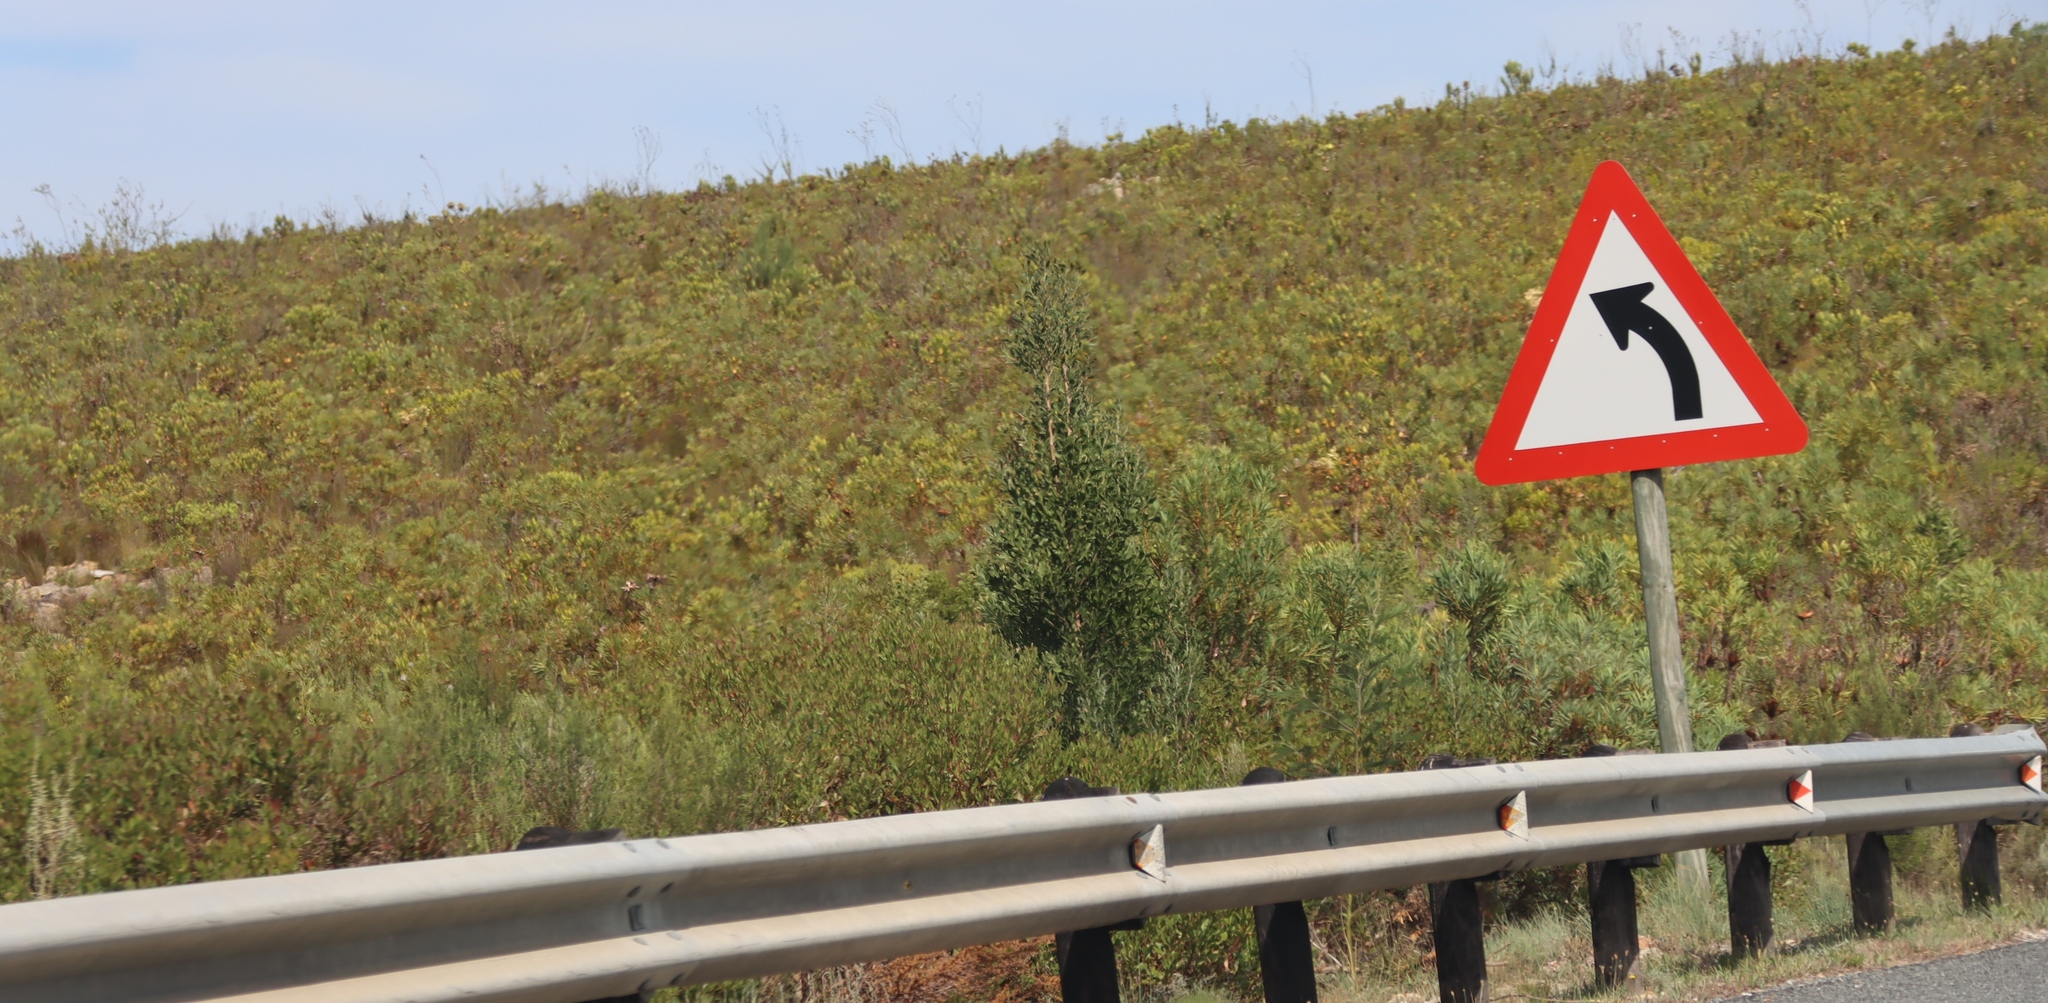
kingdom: Plantae
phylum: Tracheophyta
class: Magnoliopsida
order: Fabales
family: Fabaceae
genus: Acacia
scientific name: Acacia melanoxylon
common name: Blackwood
